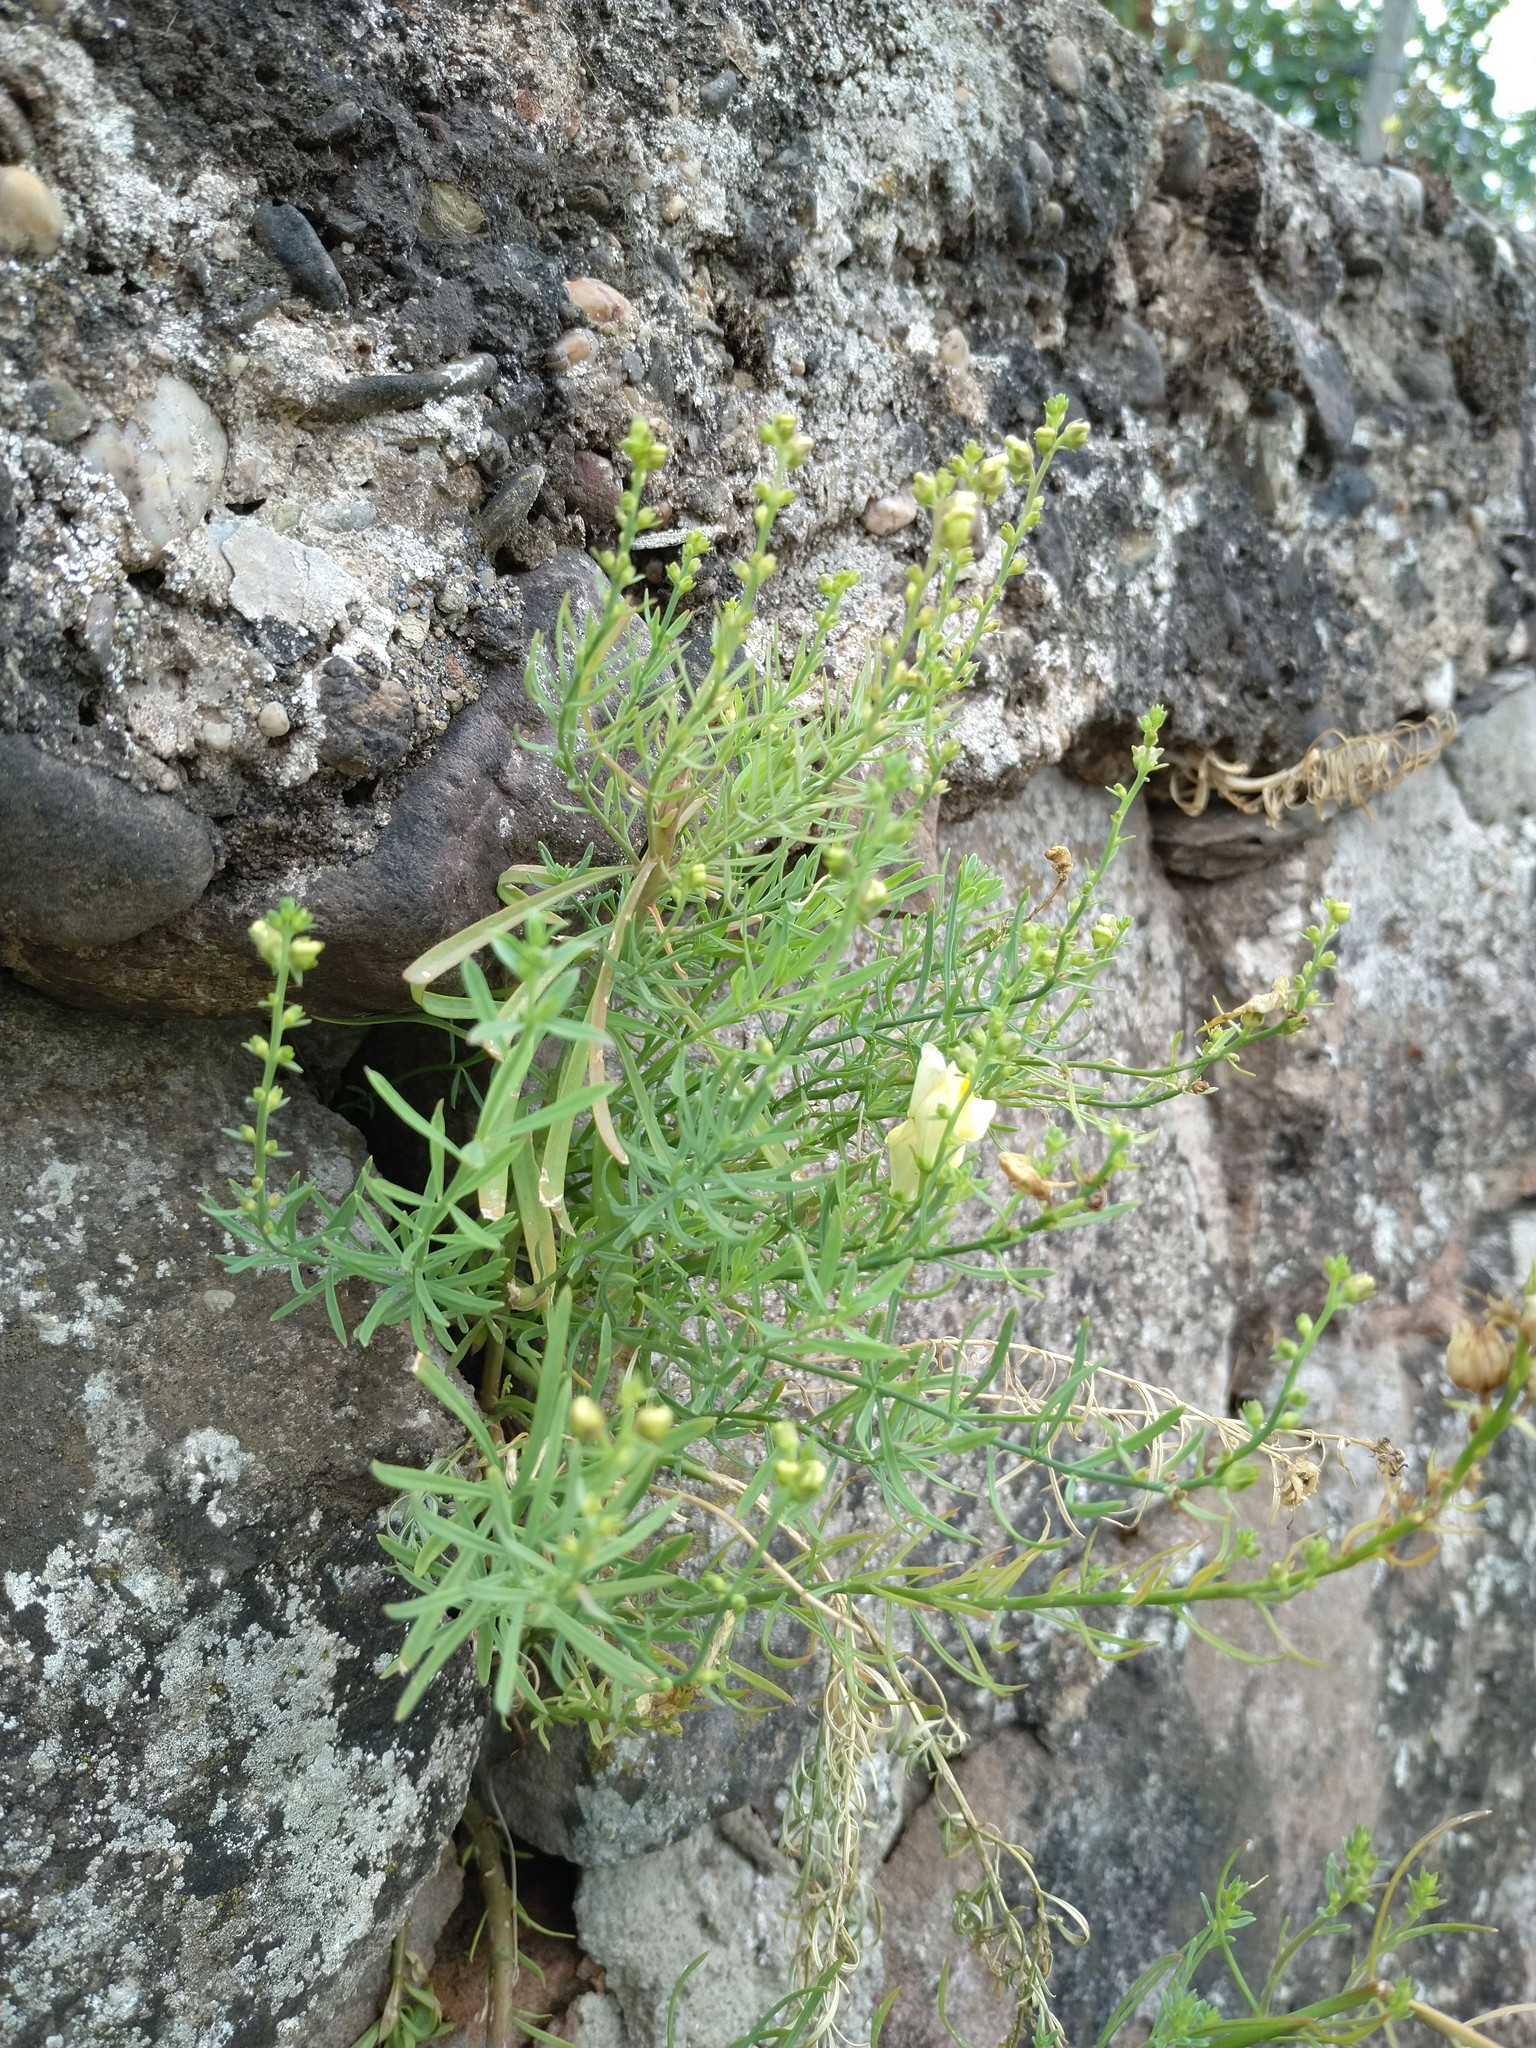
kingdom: Plantae
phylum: Tracheophyta
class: Magnoliopsida
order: Lamiales
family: Plantaginaceae
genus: Linaria
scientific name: Linaria vulgaris
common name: Butter and eggs
